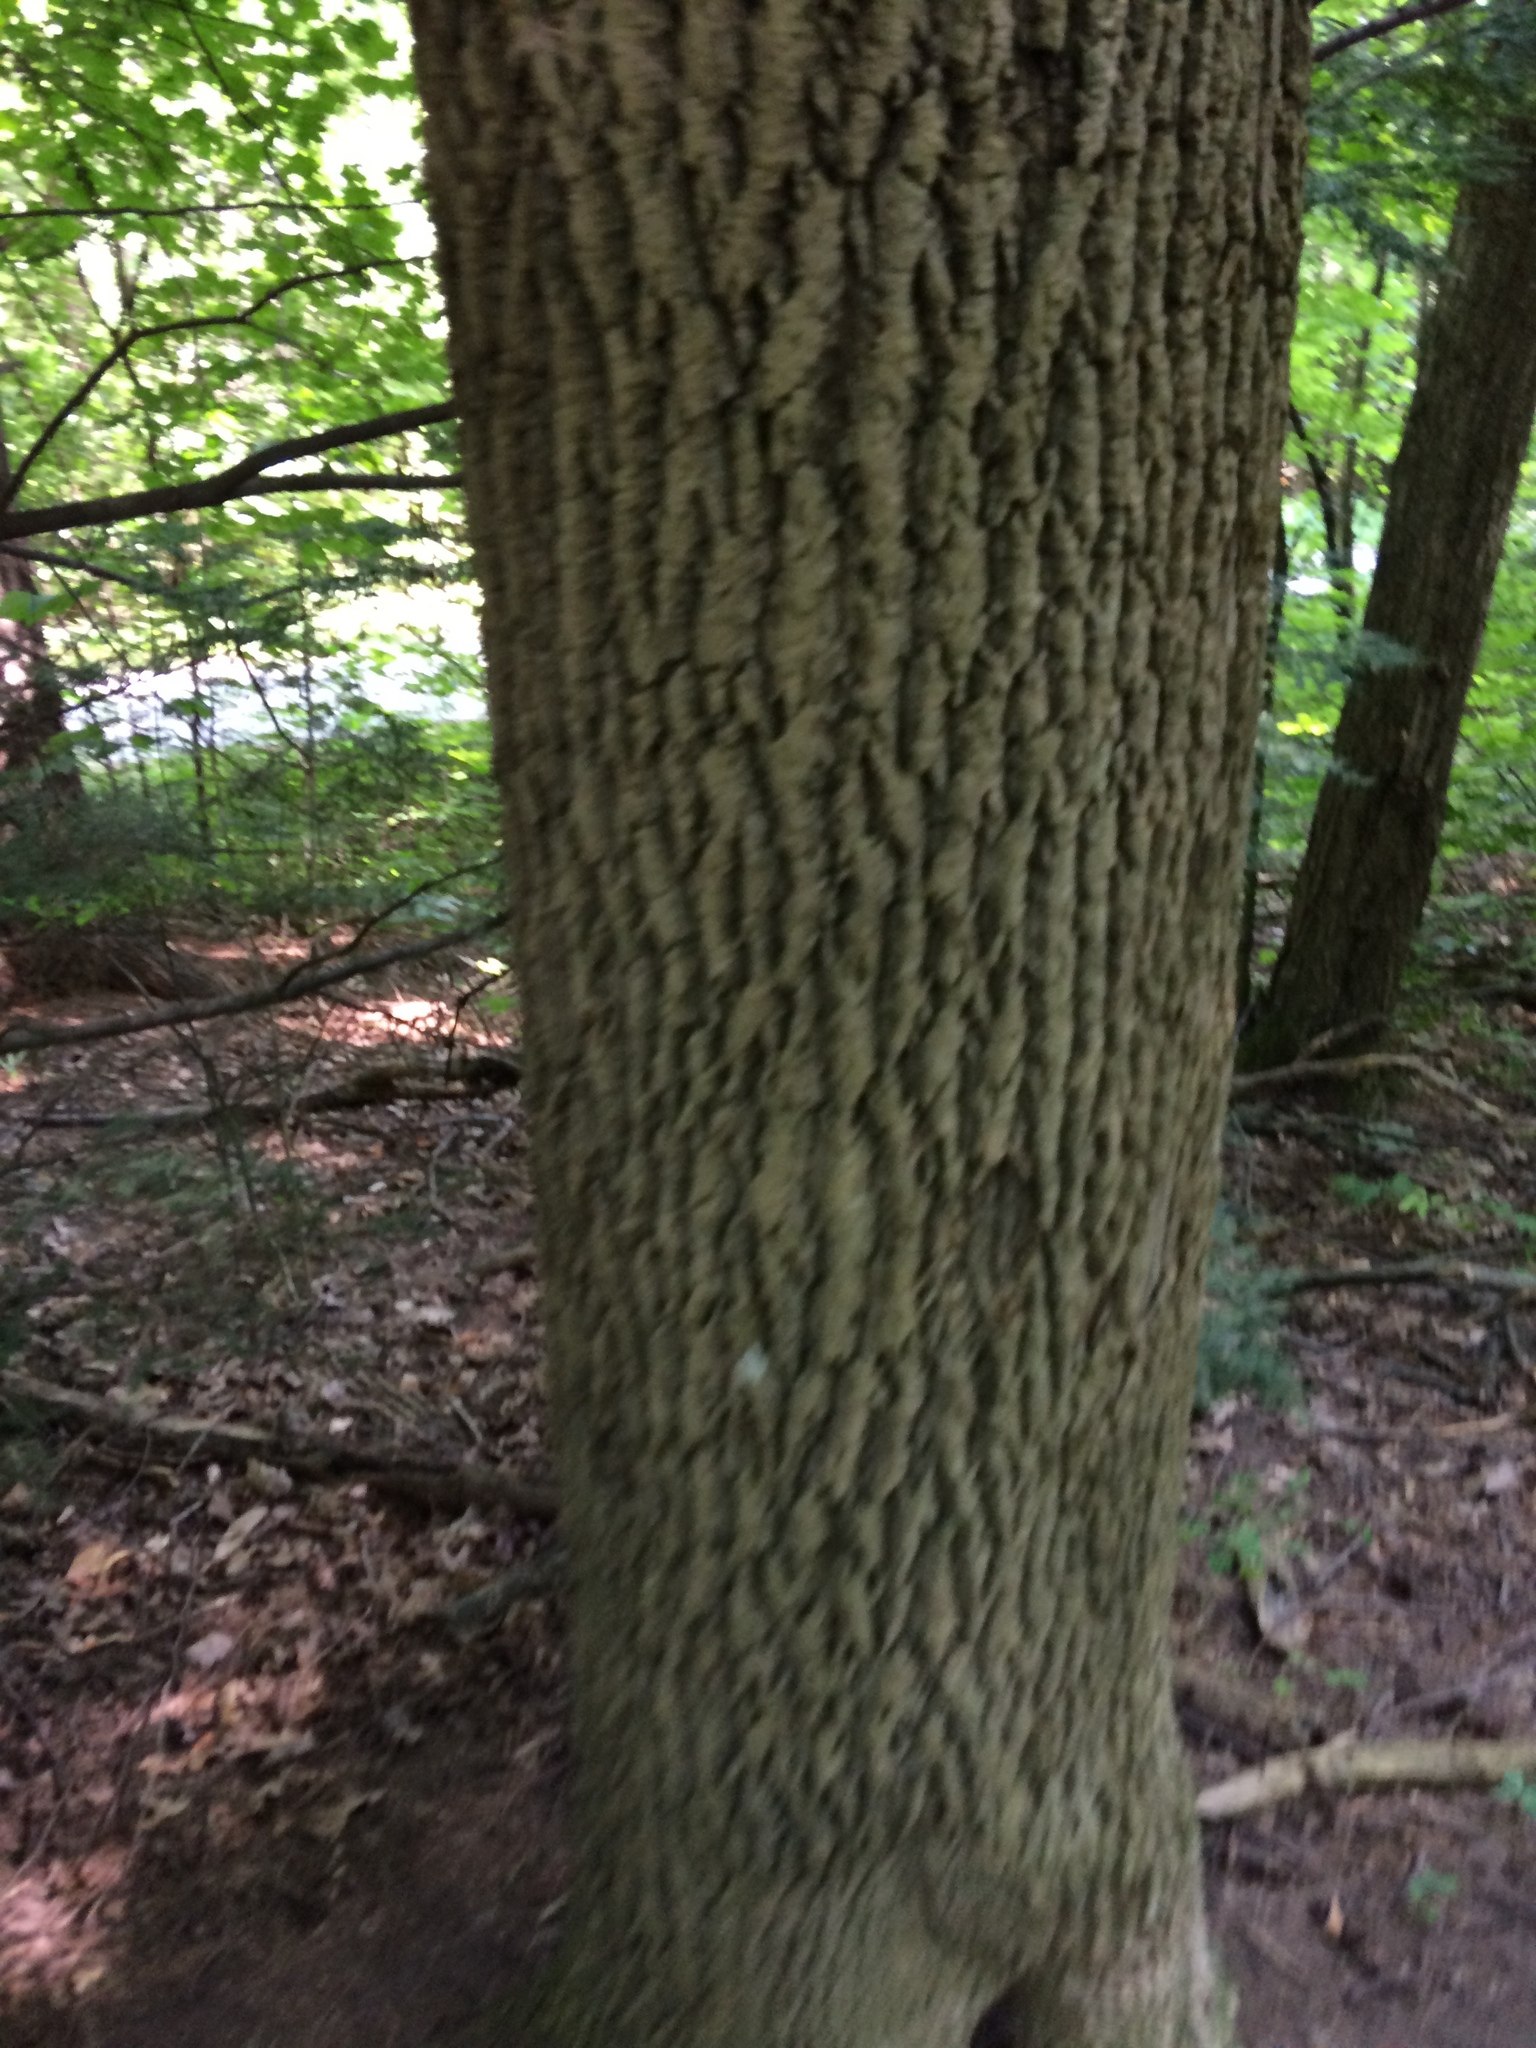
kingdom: Plantae
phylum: Tracheophyta
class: Magnoliopsida
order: Lamiales
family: Oleaceae
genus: Fraxinus
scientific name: Fraxinus americana
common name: White ash
